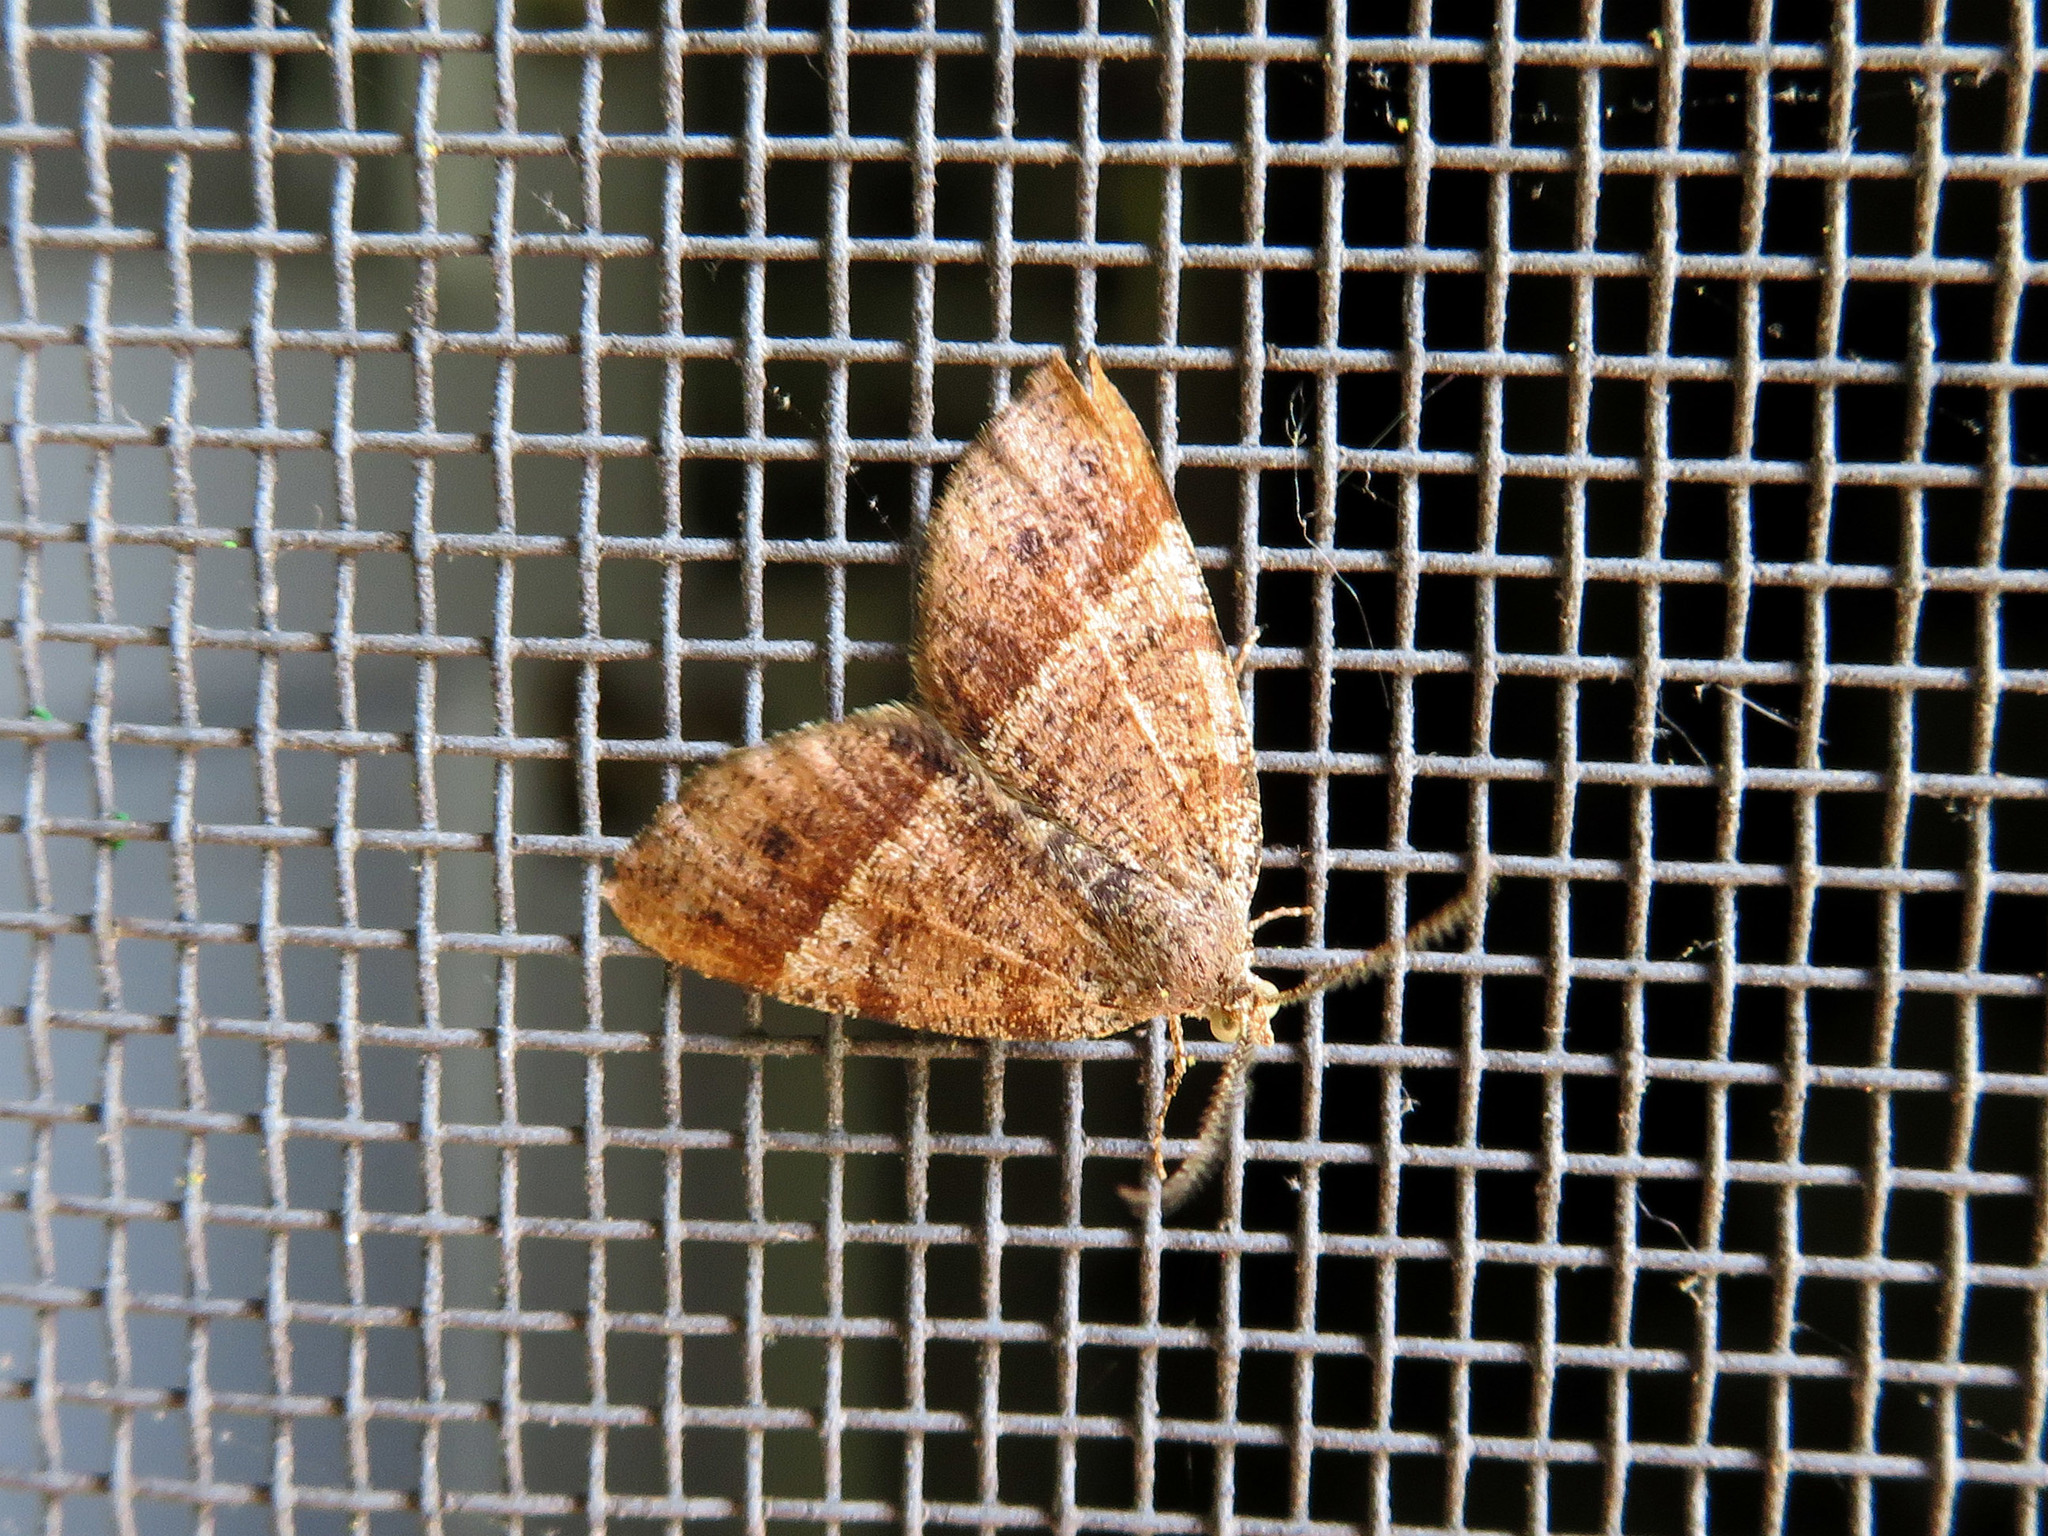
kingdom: Animalia
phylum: Arthropoda
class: Insecta
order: Lepidoptera
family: Geometridae
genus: Mellilla
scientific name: Mellilla xanthometata
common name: Orange wing moth
